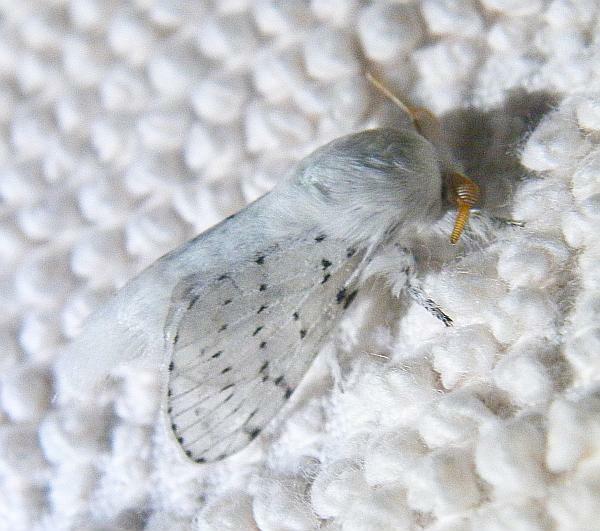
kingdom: Animalia
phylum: Arthropoda
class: Insecta
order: Lepidoptera
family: Lasiocampidae
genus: Artace
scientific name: Artace cribrarius
